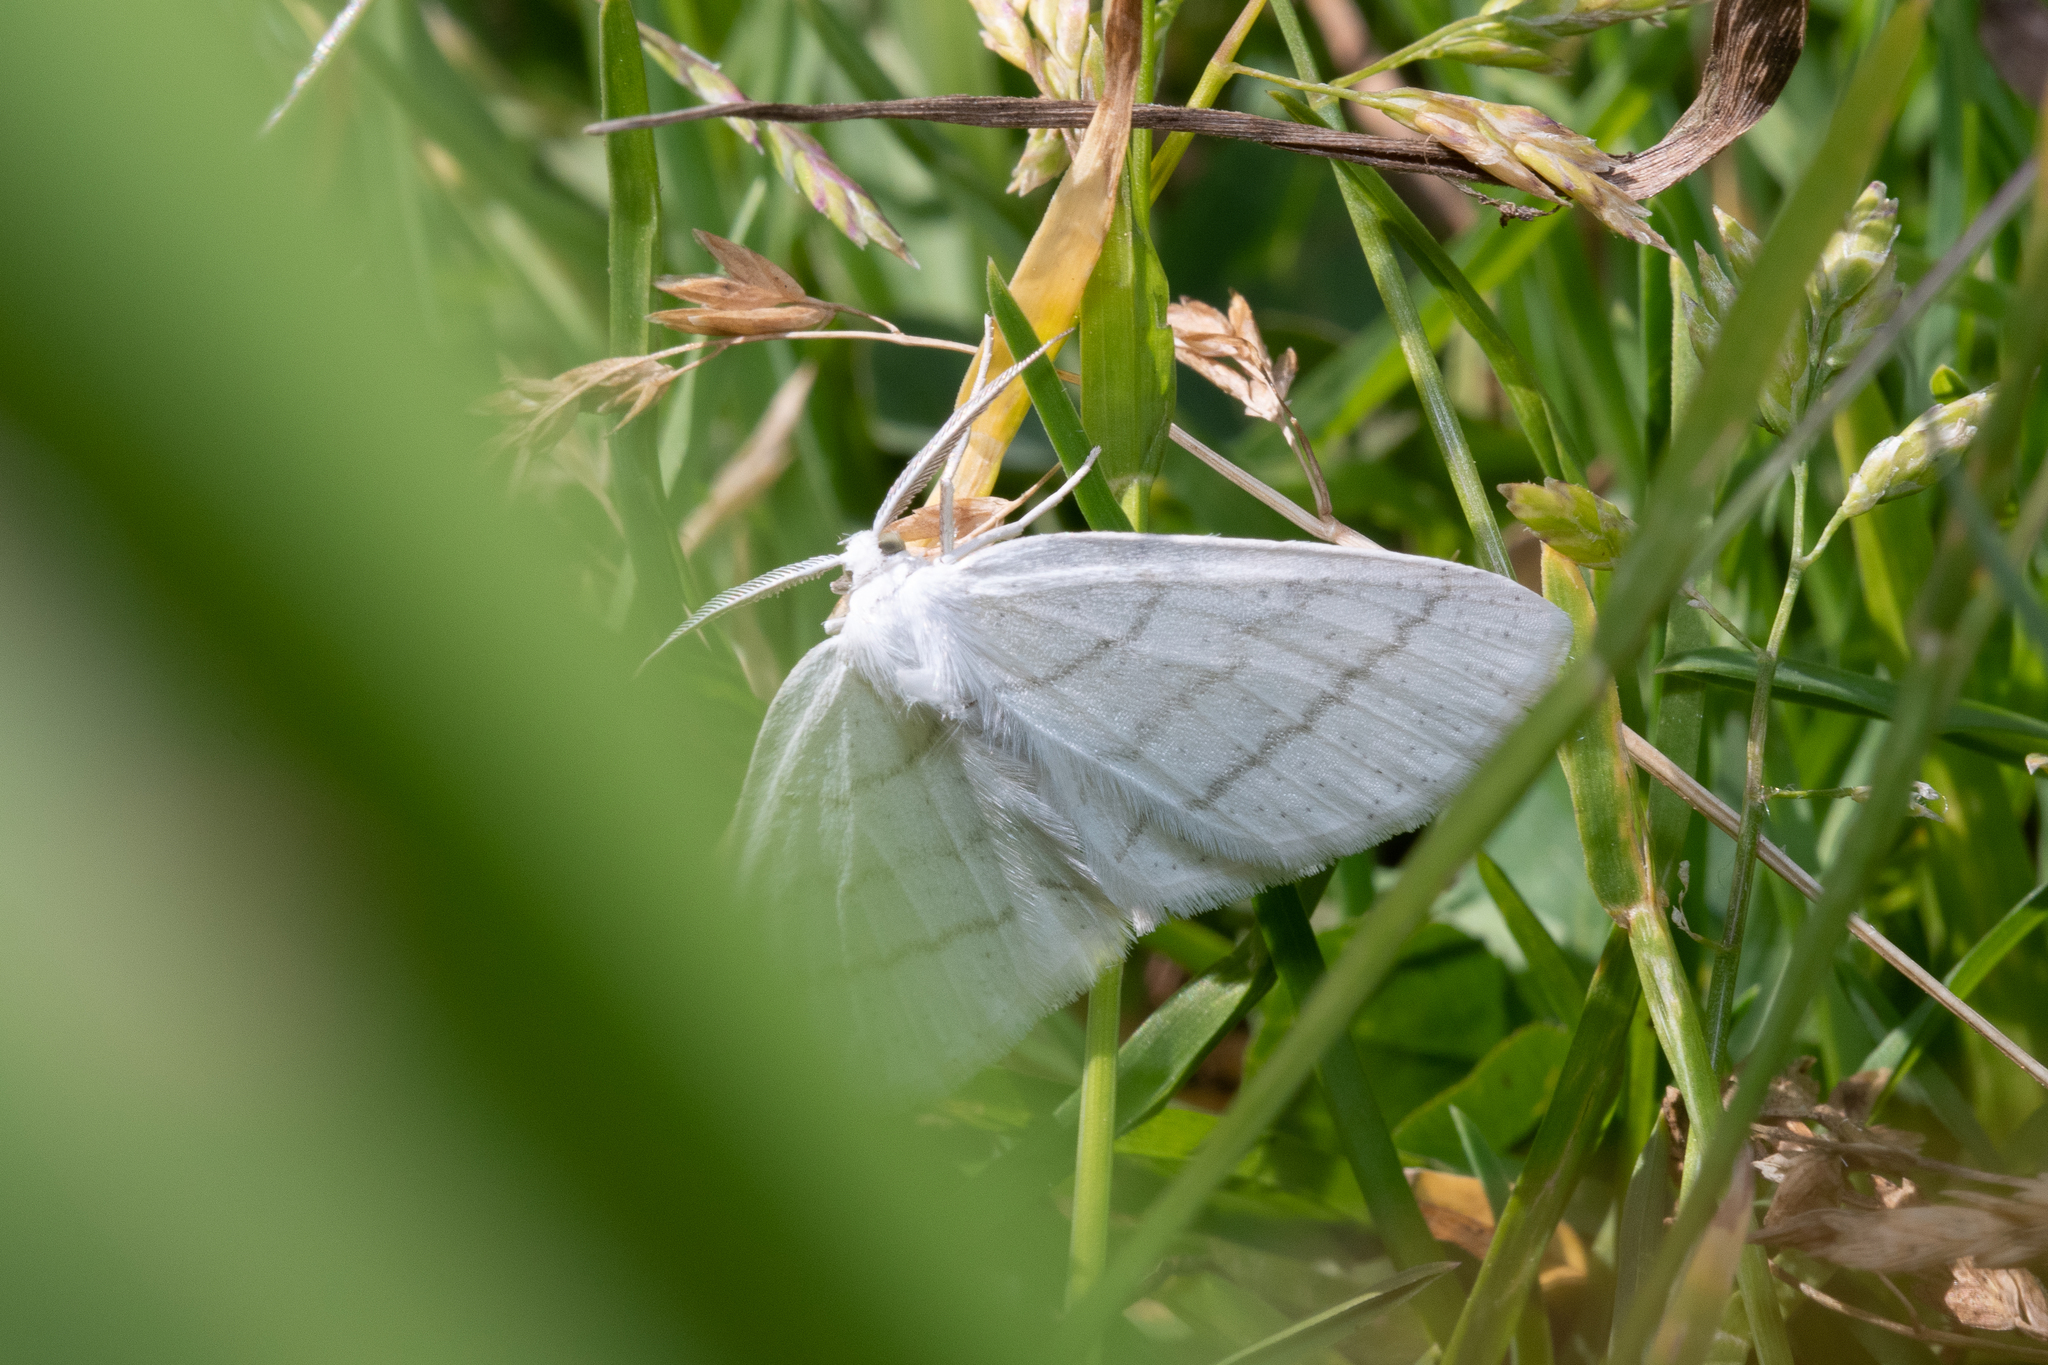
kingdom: Animalia
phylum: Arthropoda
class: Insecta
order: Lepidoptera
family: Geometridae
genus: Cabera
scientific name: Cabera pusaria
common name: Common white wave
